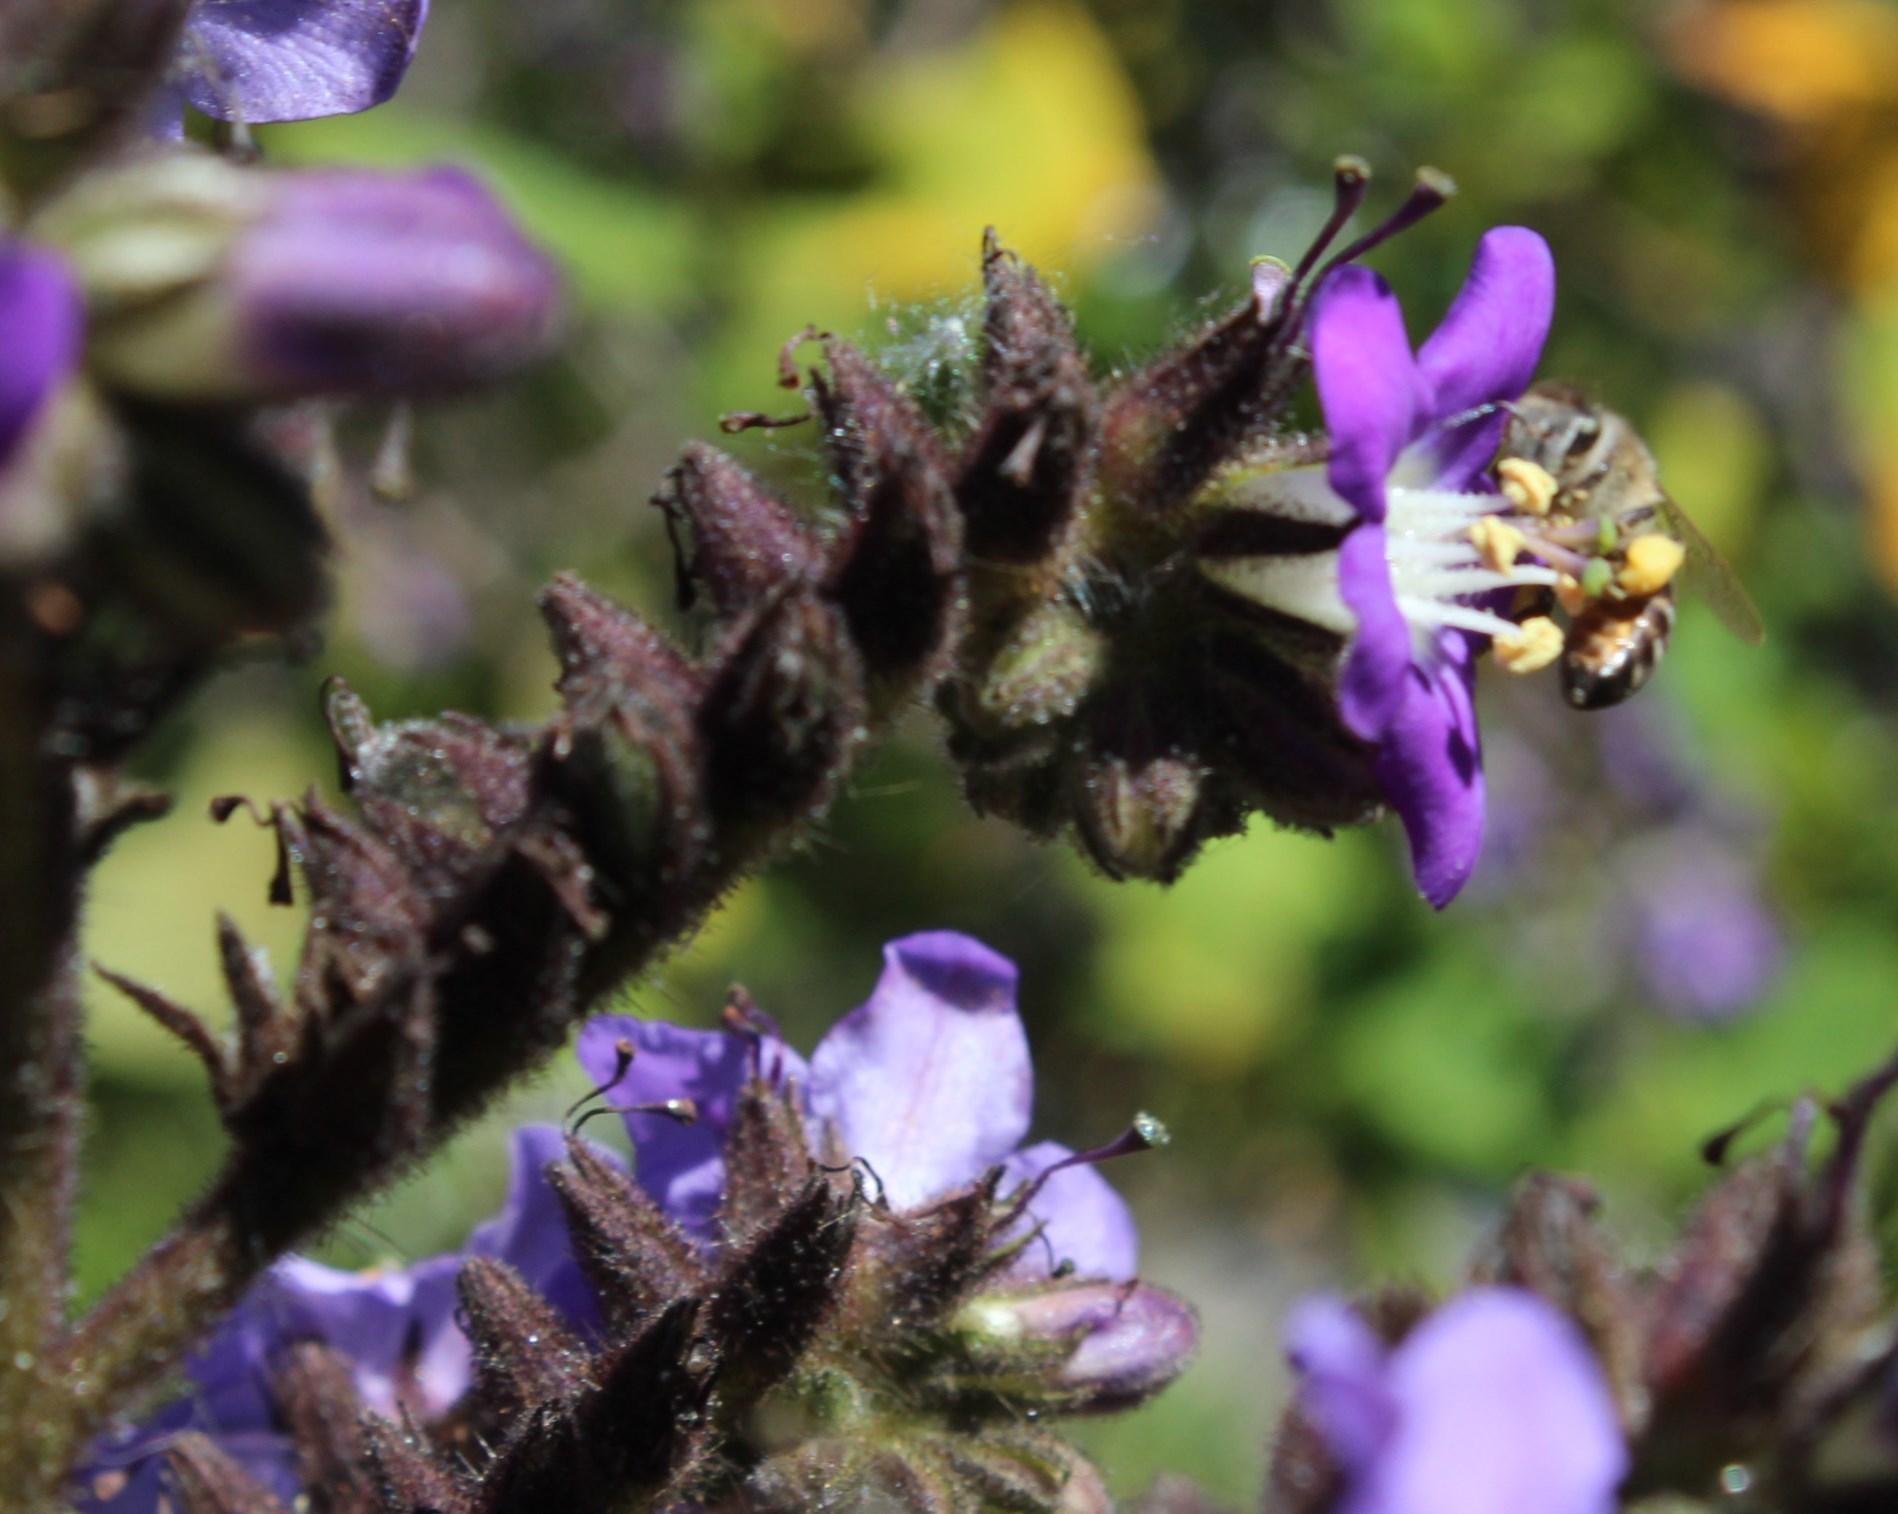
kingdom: Plantae
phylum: Tracheophyta
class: Magnoliopsida
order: Boraginales
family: Namaceae
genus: Wigandia
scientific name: Wigandia urens
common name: Caracus wigandia
